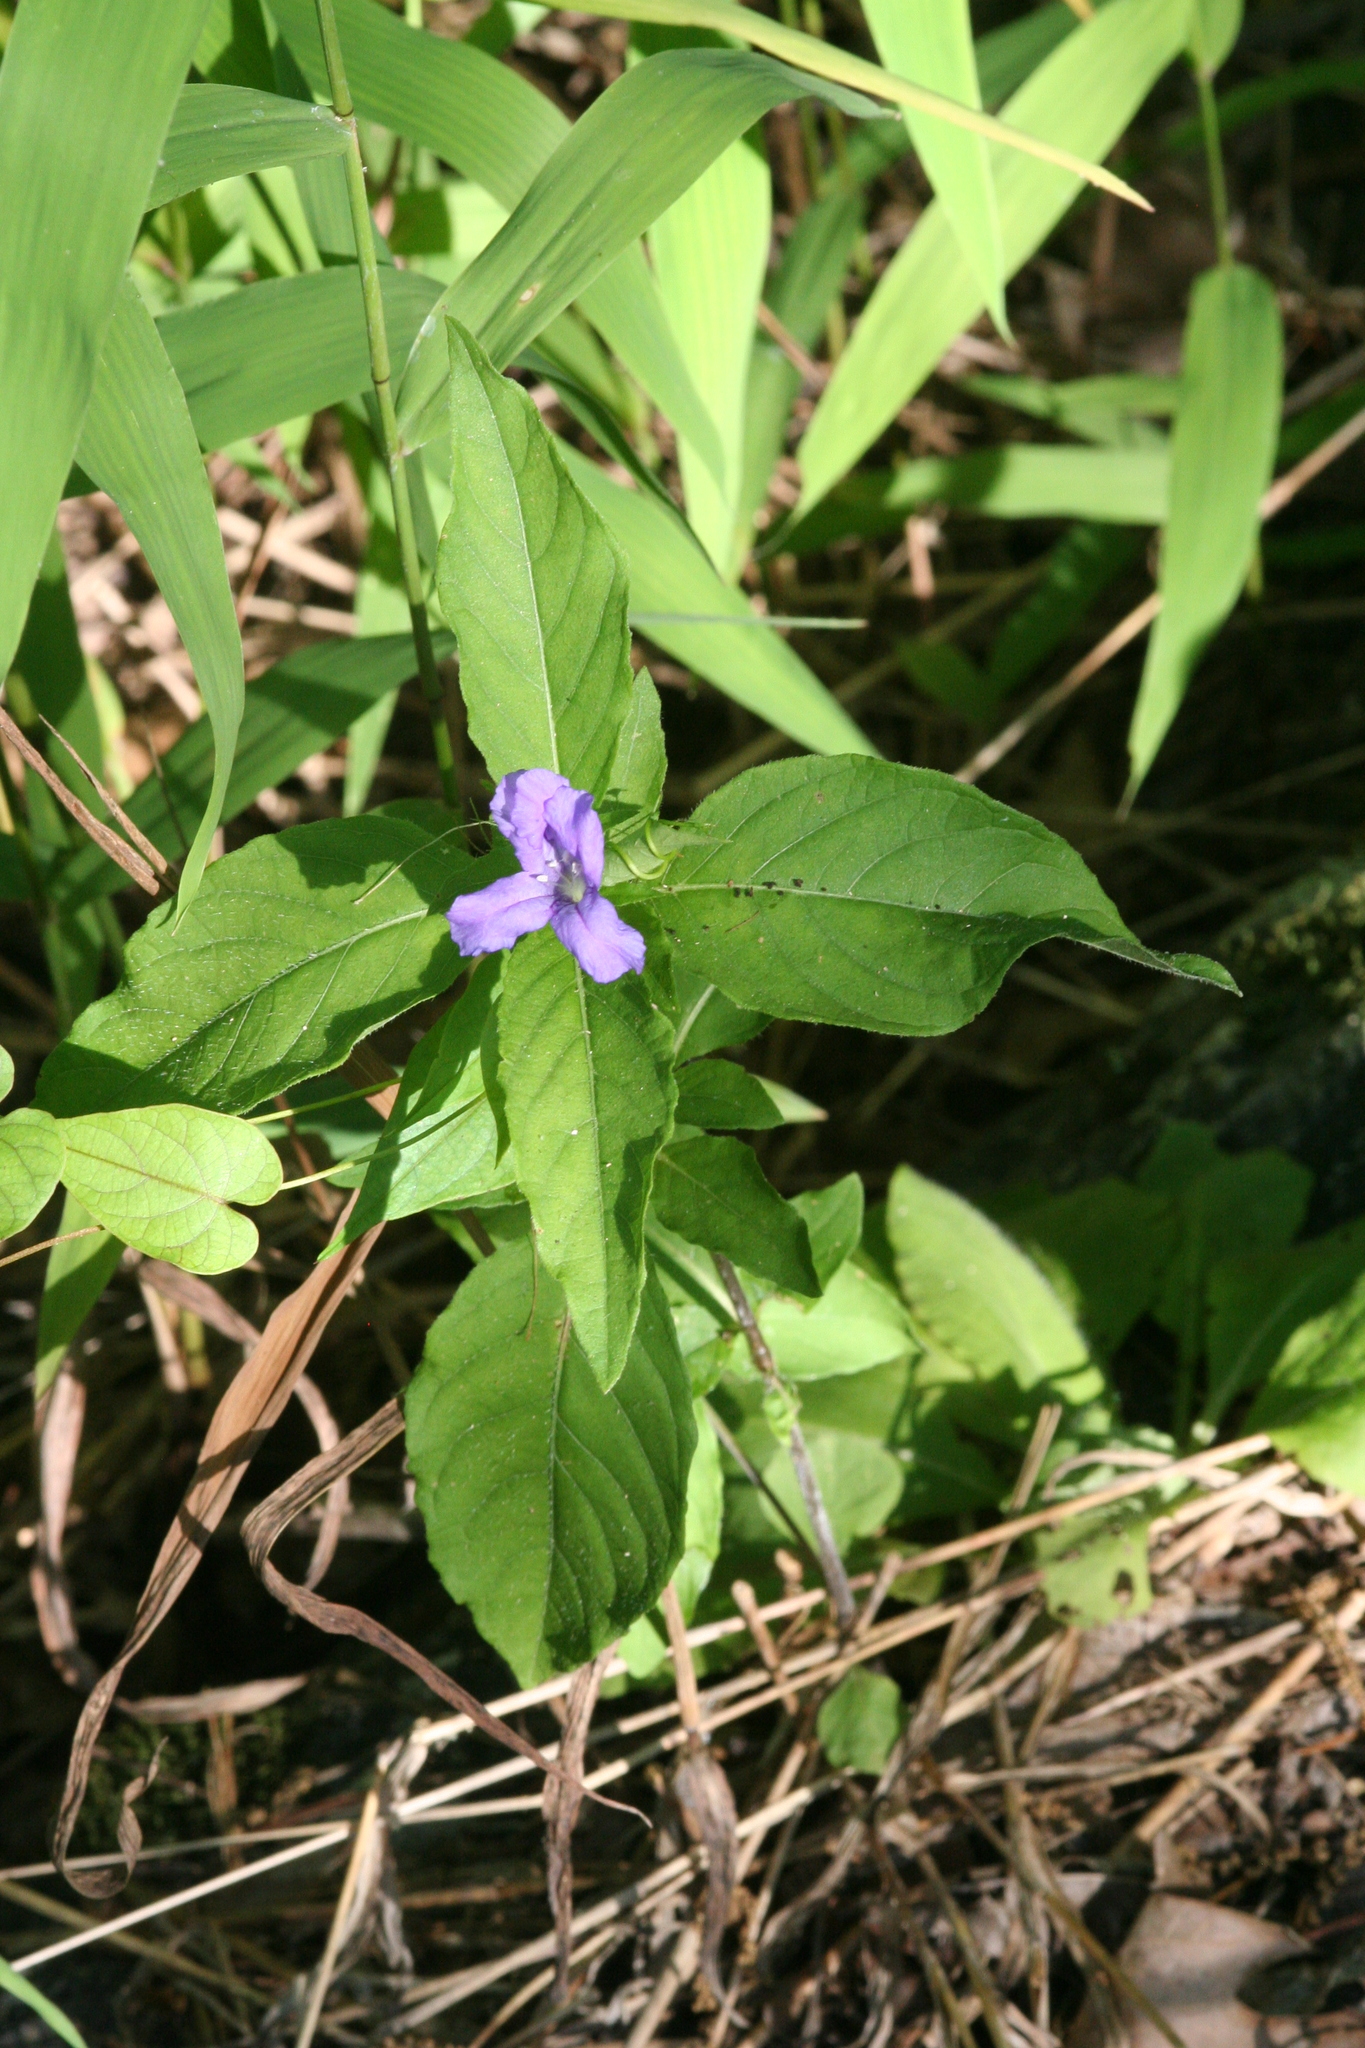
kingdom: Plantae
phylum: Tracheophyta
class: Magnoliopsida
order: Lamiales
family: Acanthaceae
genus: Ruellia
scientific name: Ruellia caroliniensis
